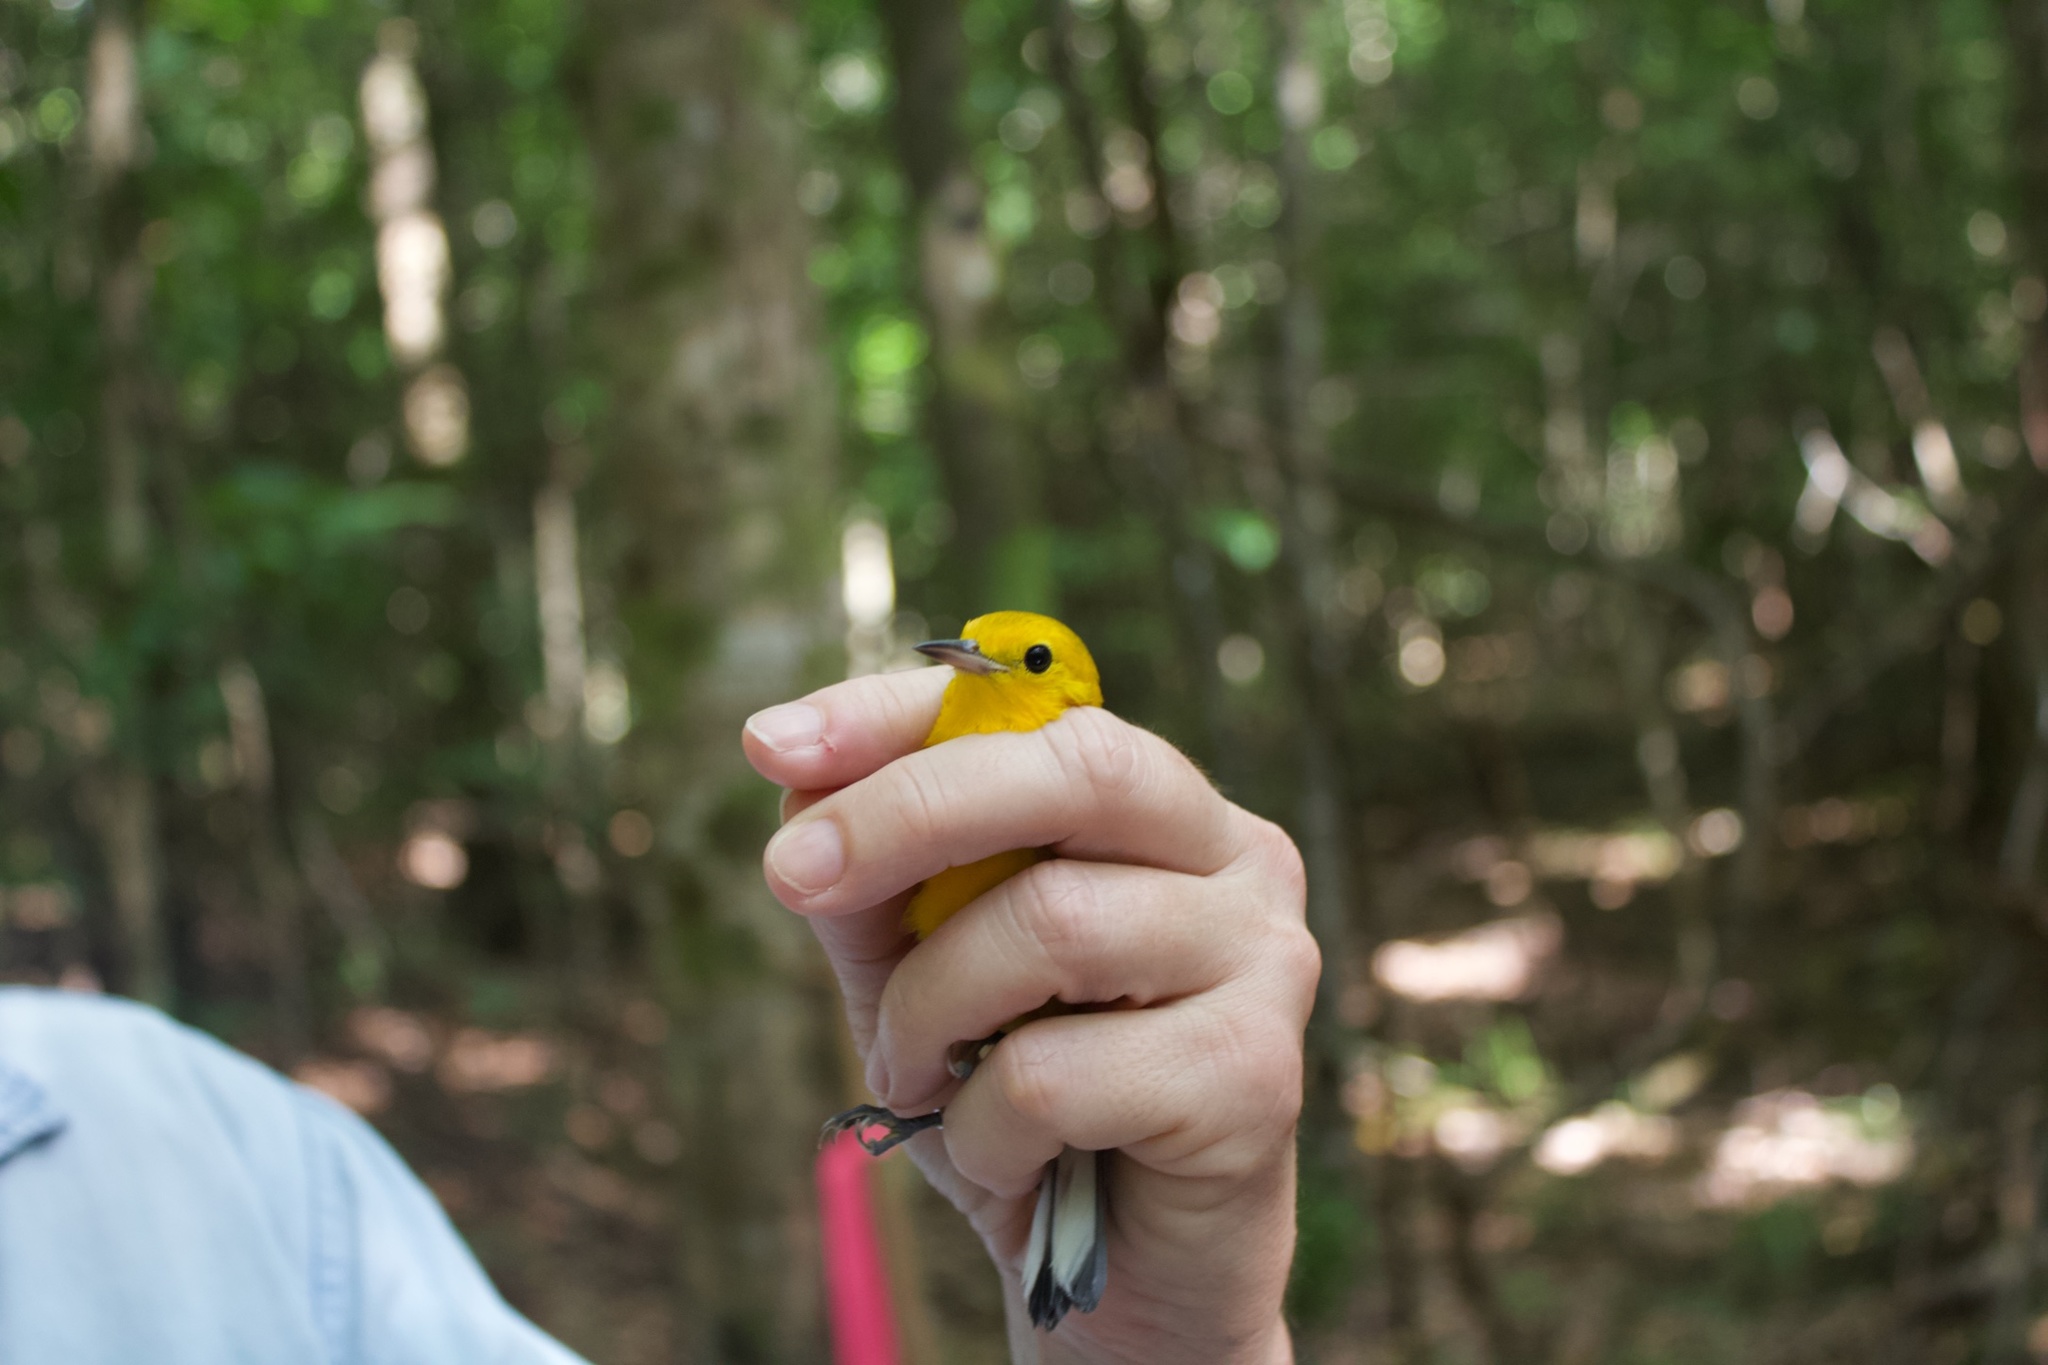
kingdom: Animalia
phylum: Chordata
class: Aves
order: Passeriformes
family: Parulidae
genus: Protonotaria
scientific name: Protonotaria citrea
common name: Prothonotary warbler
